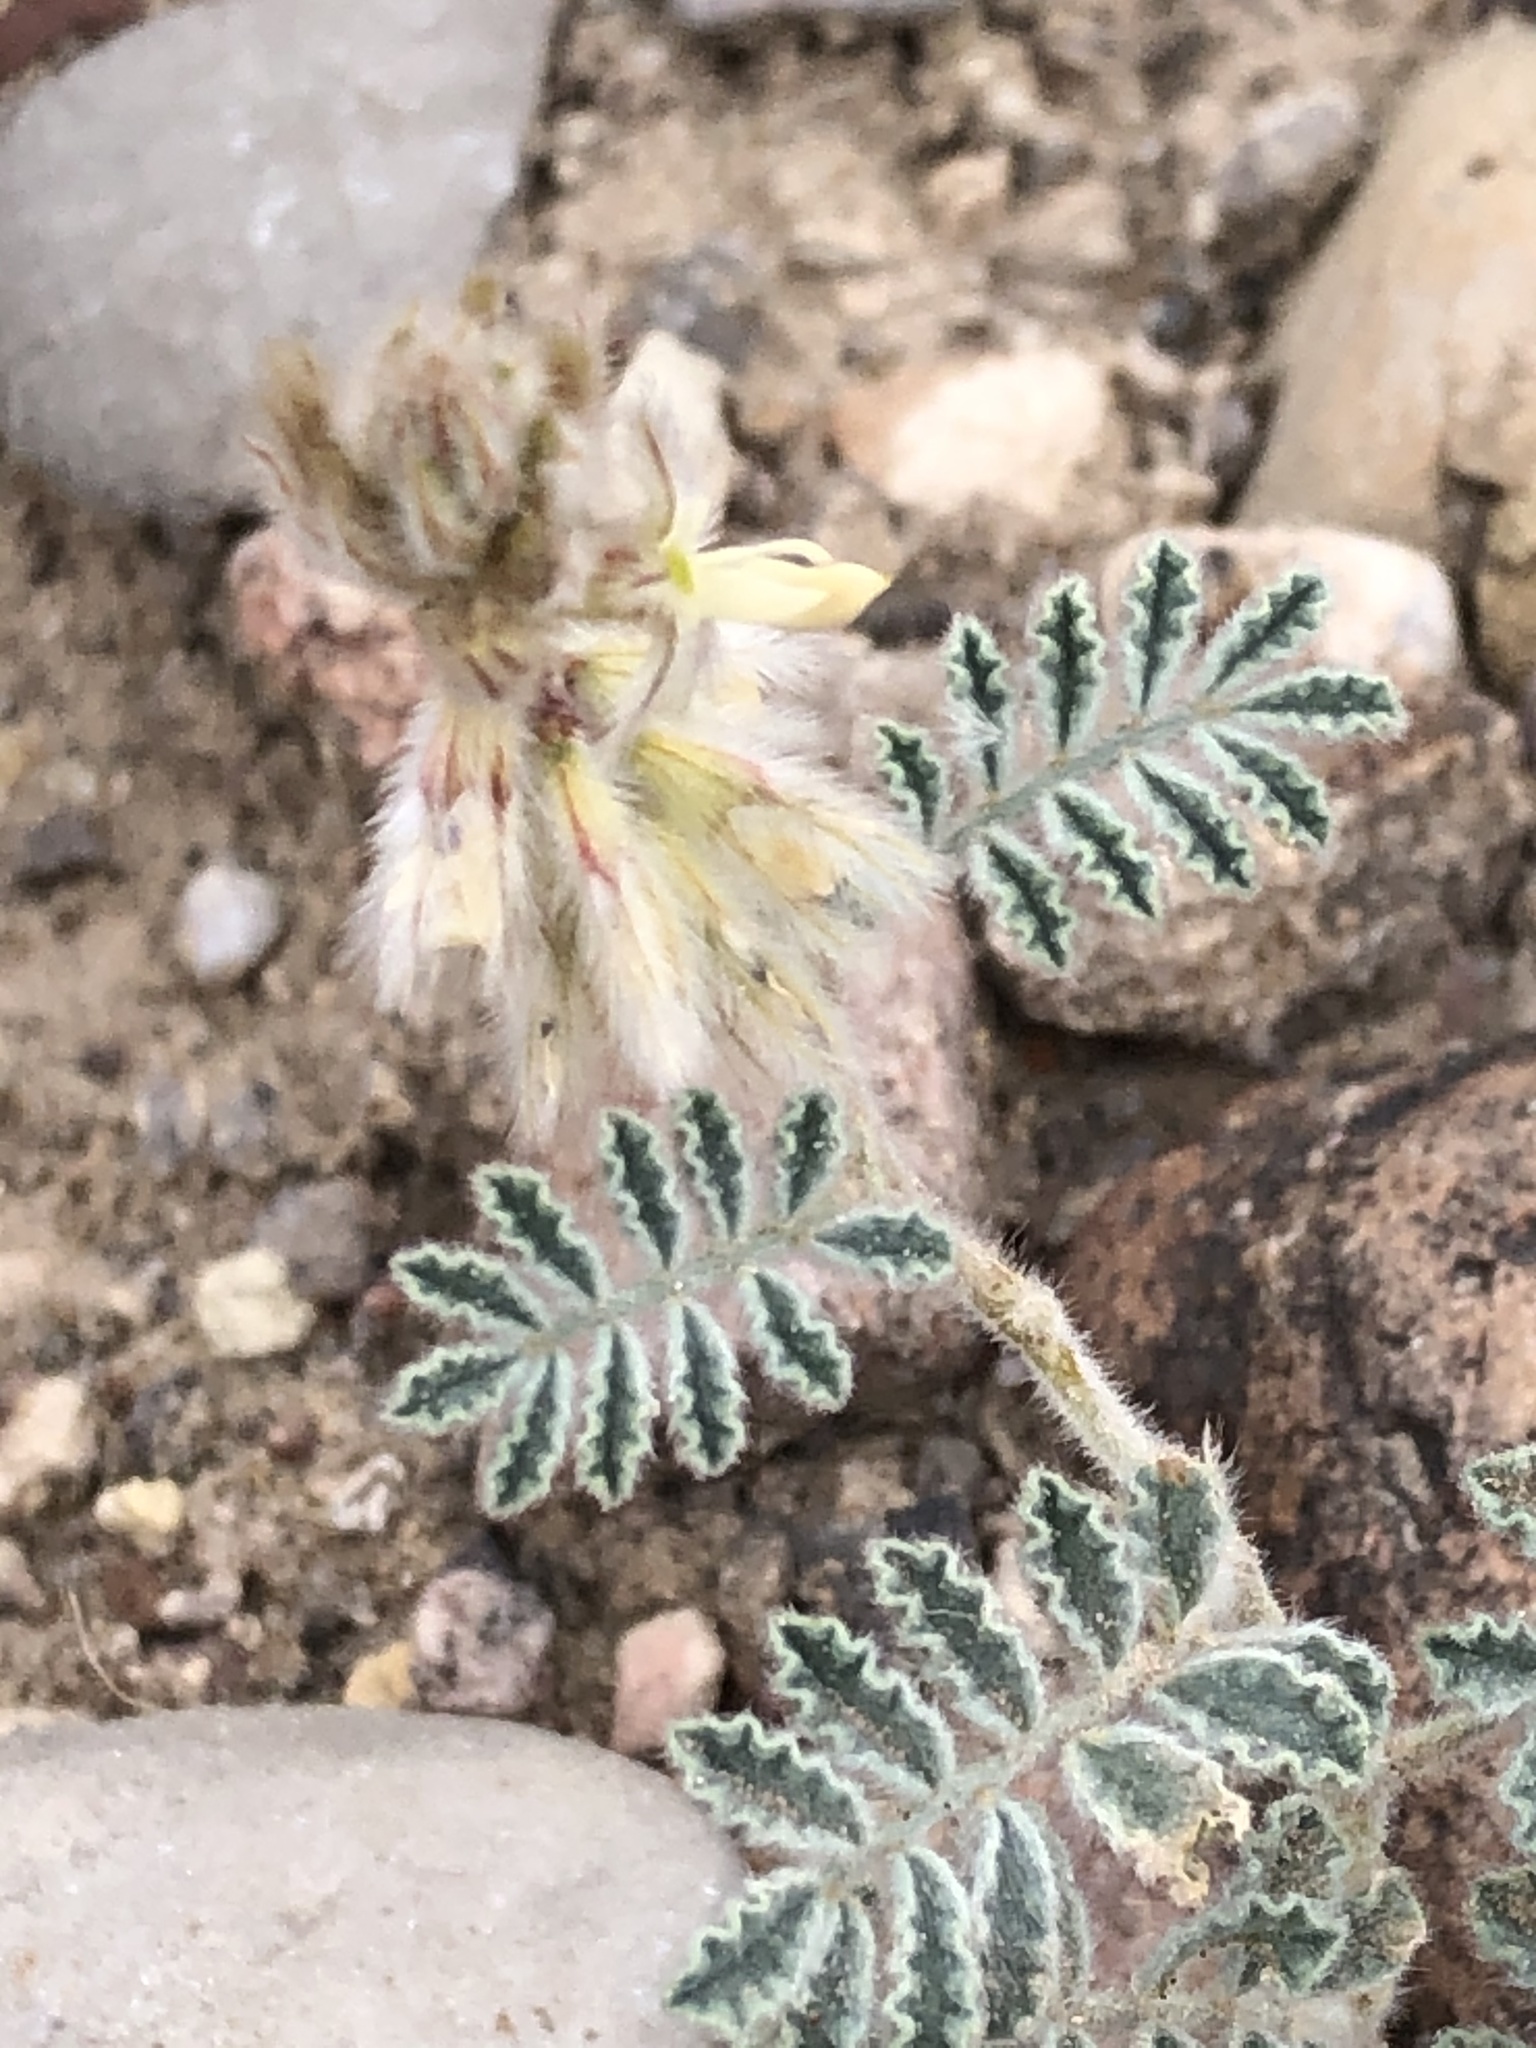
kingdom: Plantae
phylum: Tracheophyta
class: Magnoliopsida
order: Fabales
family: Fabaceae
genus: Dalea
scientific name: Dalea neomexicana
